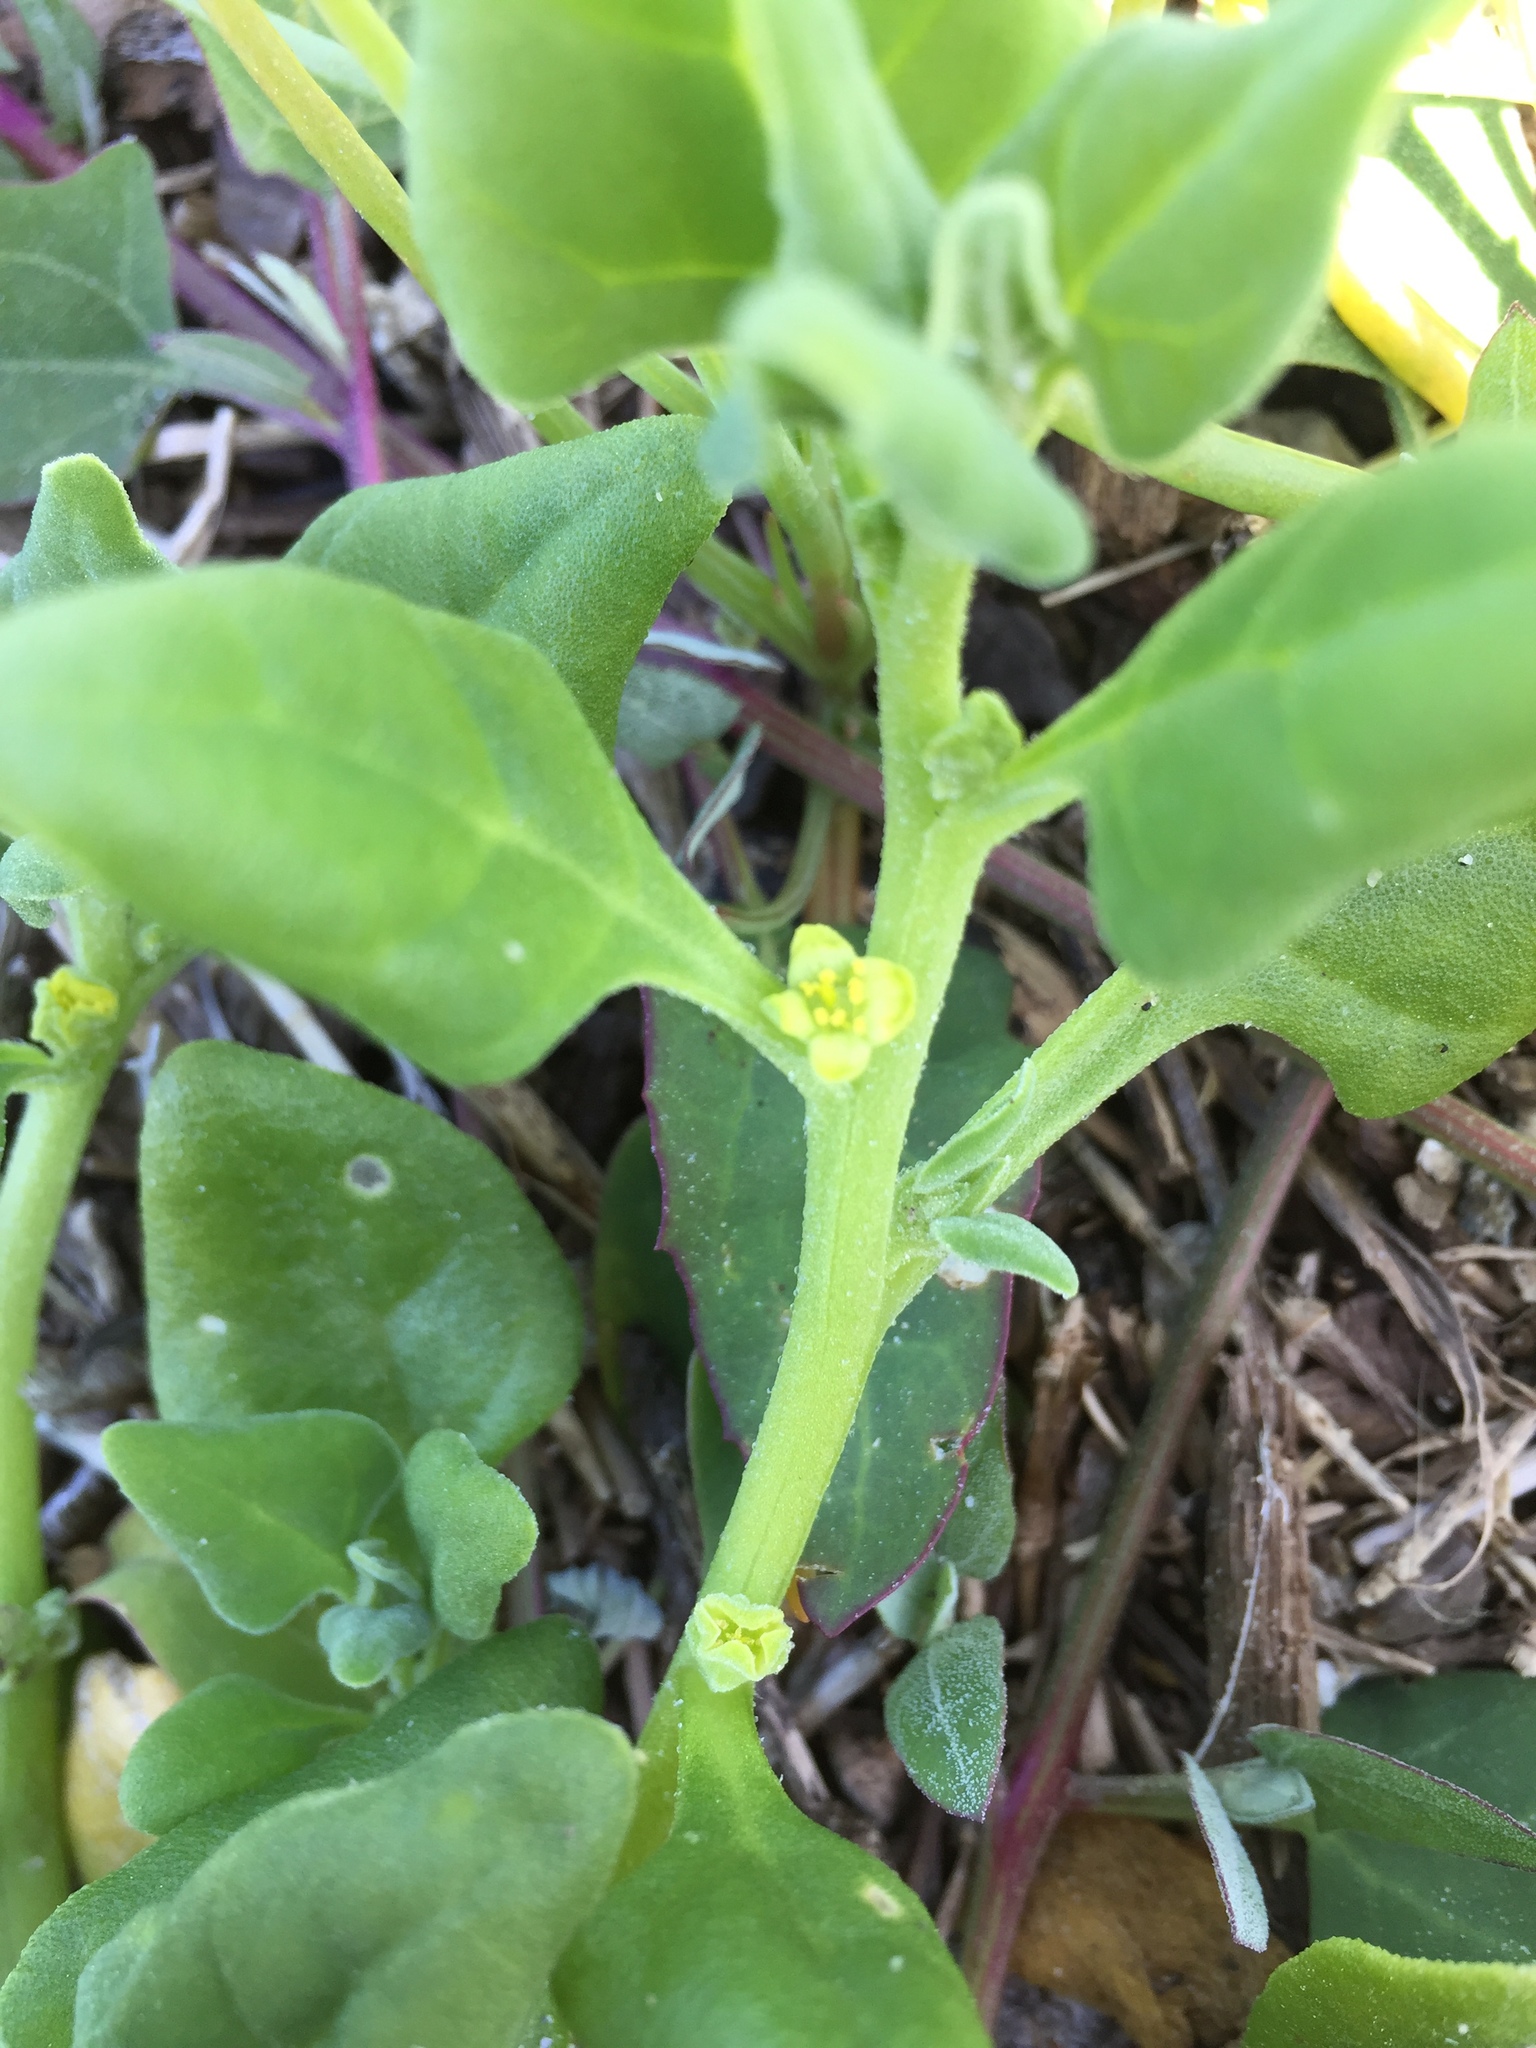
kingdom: Plantae
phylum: Tracheophyta
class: Magnoliopsida
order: Caryophyllales
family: Aizoaceae
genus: Tetragonia
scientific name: Tetragonia tetragonoides
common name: New zealand-spinach
